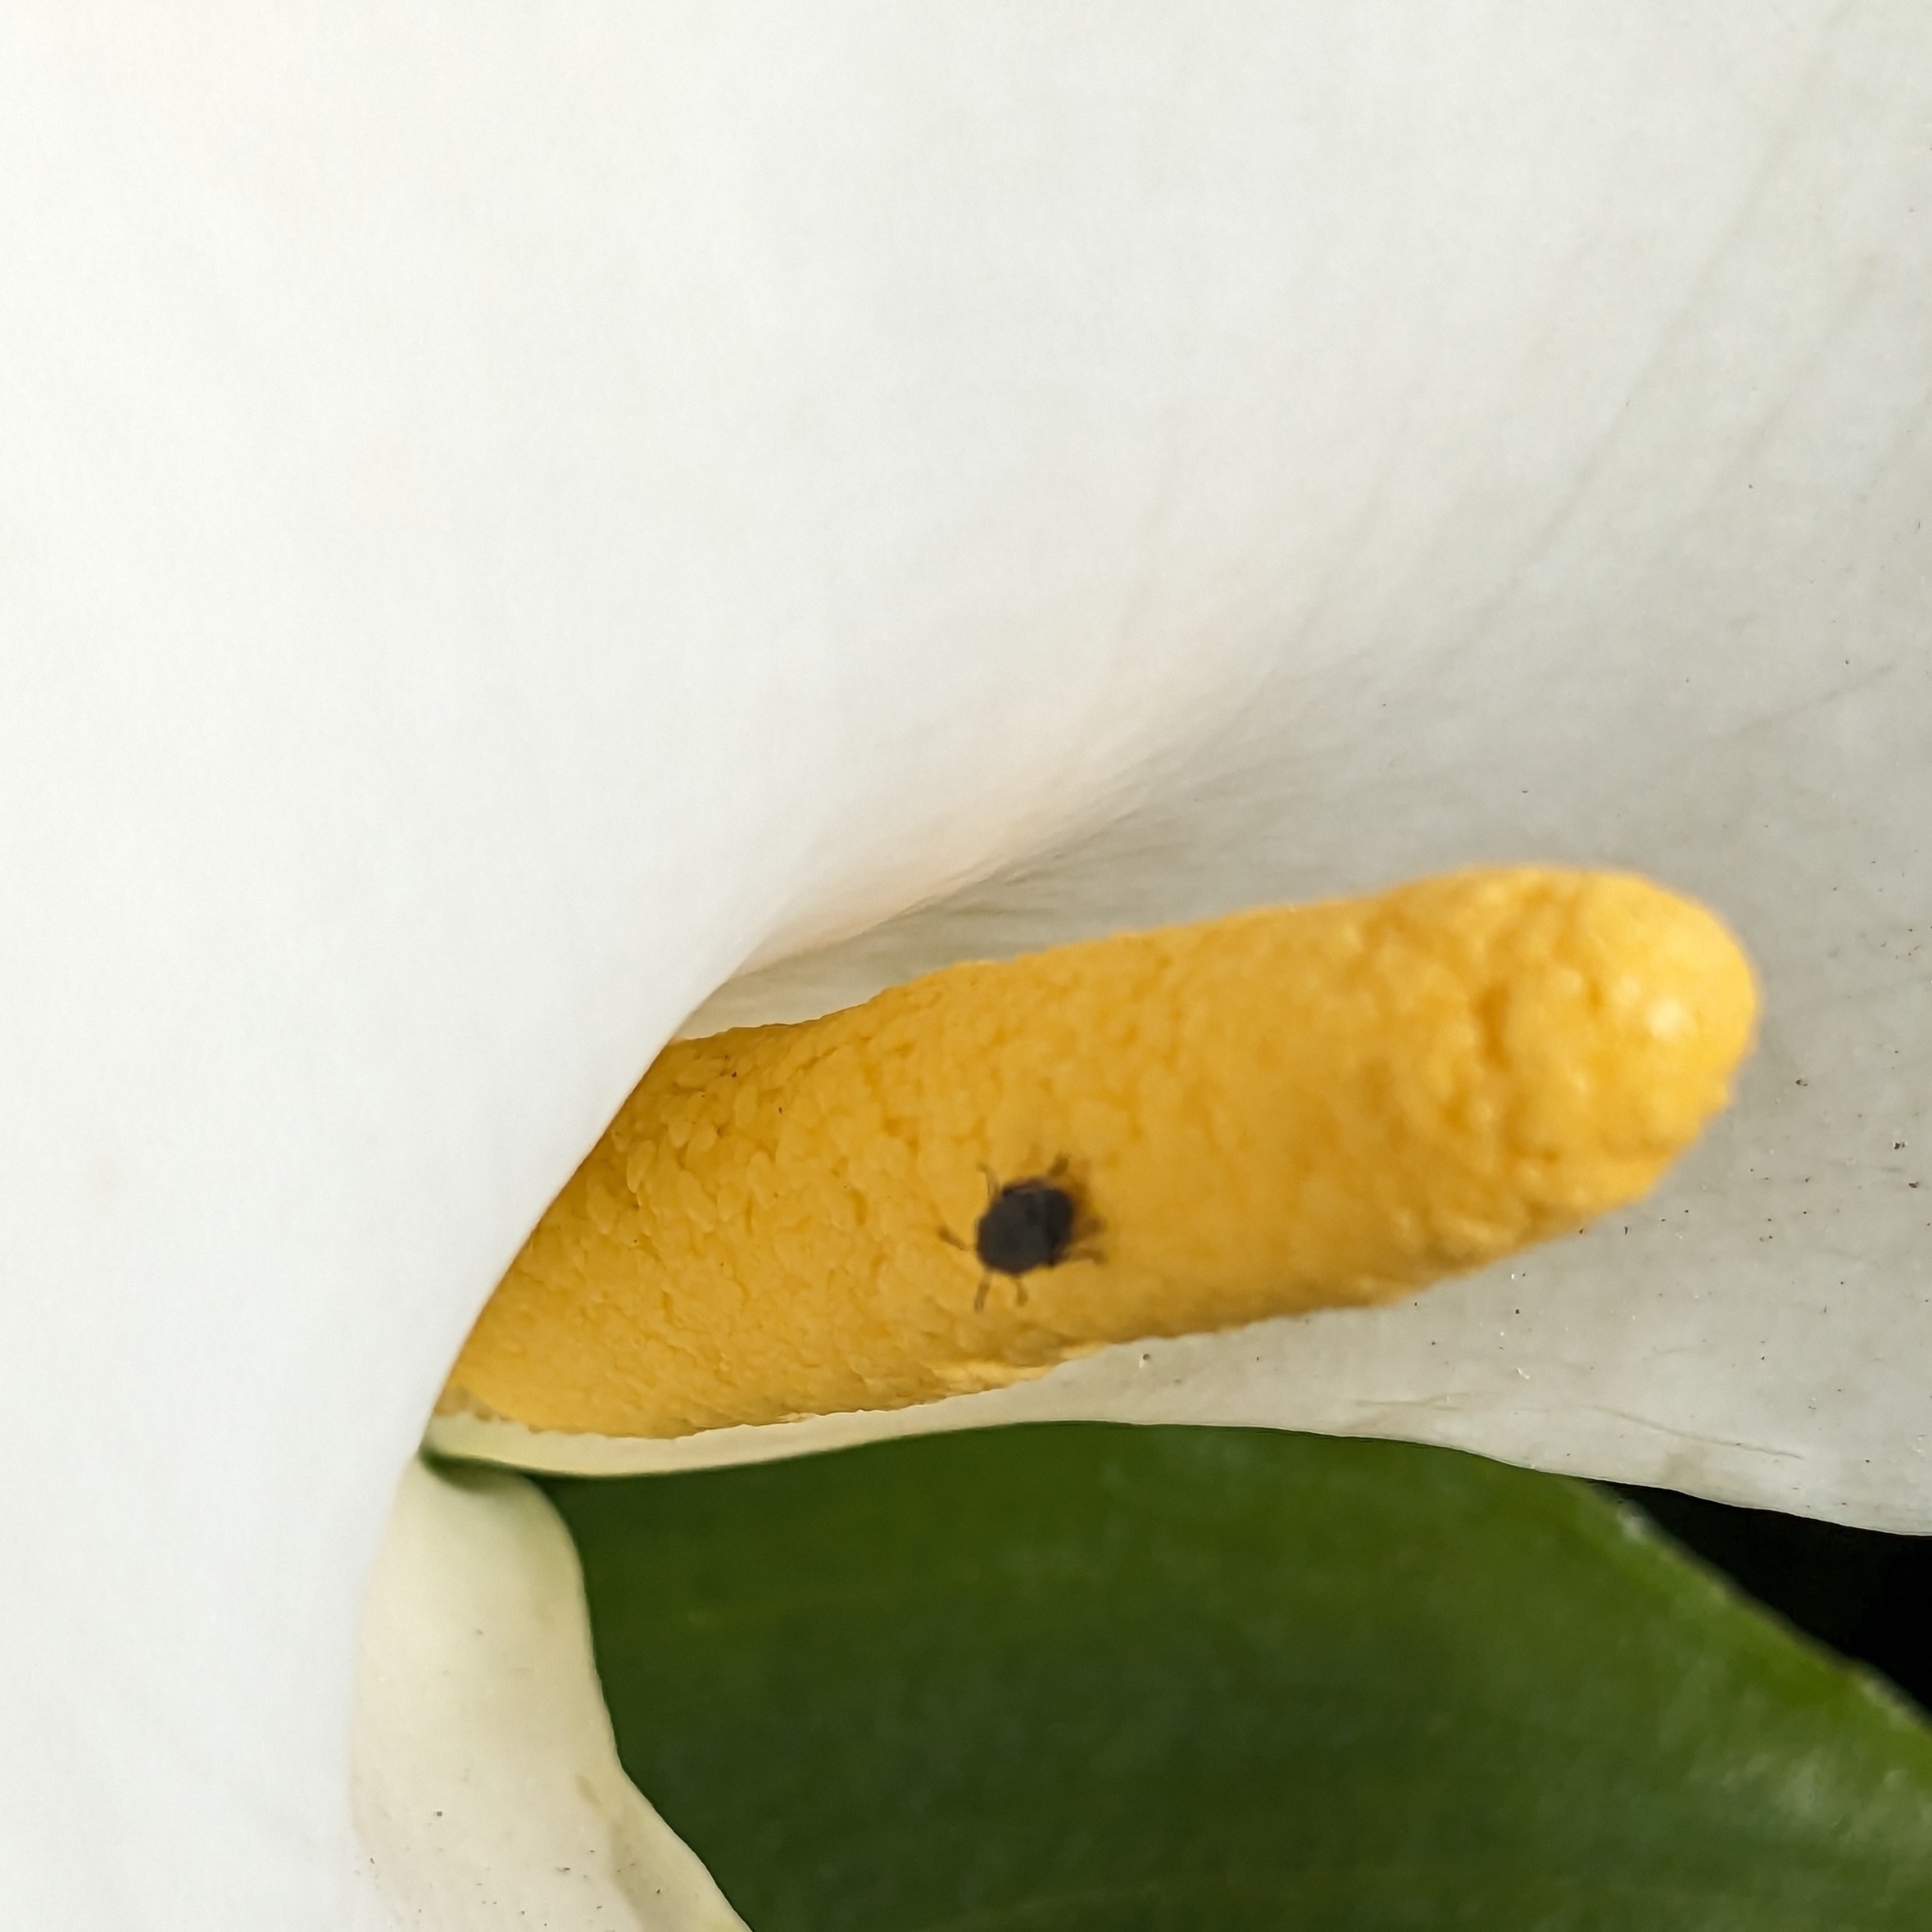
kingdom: Animalia
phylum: Arthropoda
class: Insecta
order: Coleoptera
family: Chrysomelidae
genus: Bruchidius
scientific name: Bruchidius villosus
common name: Scotch broom bruchid
